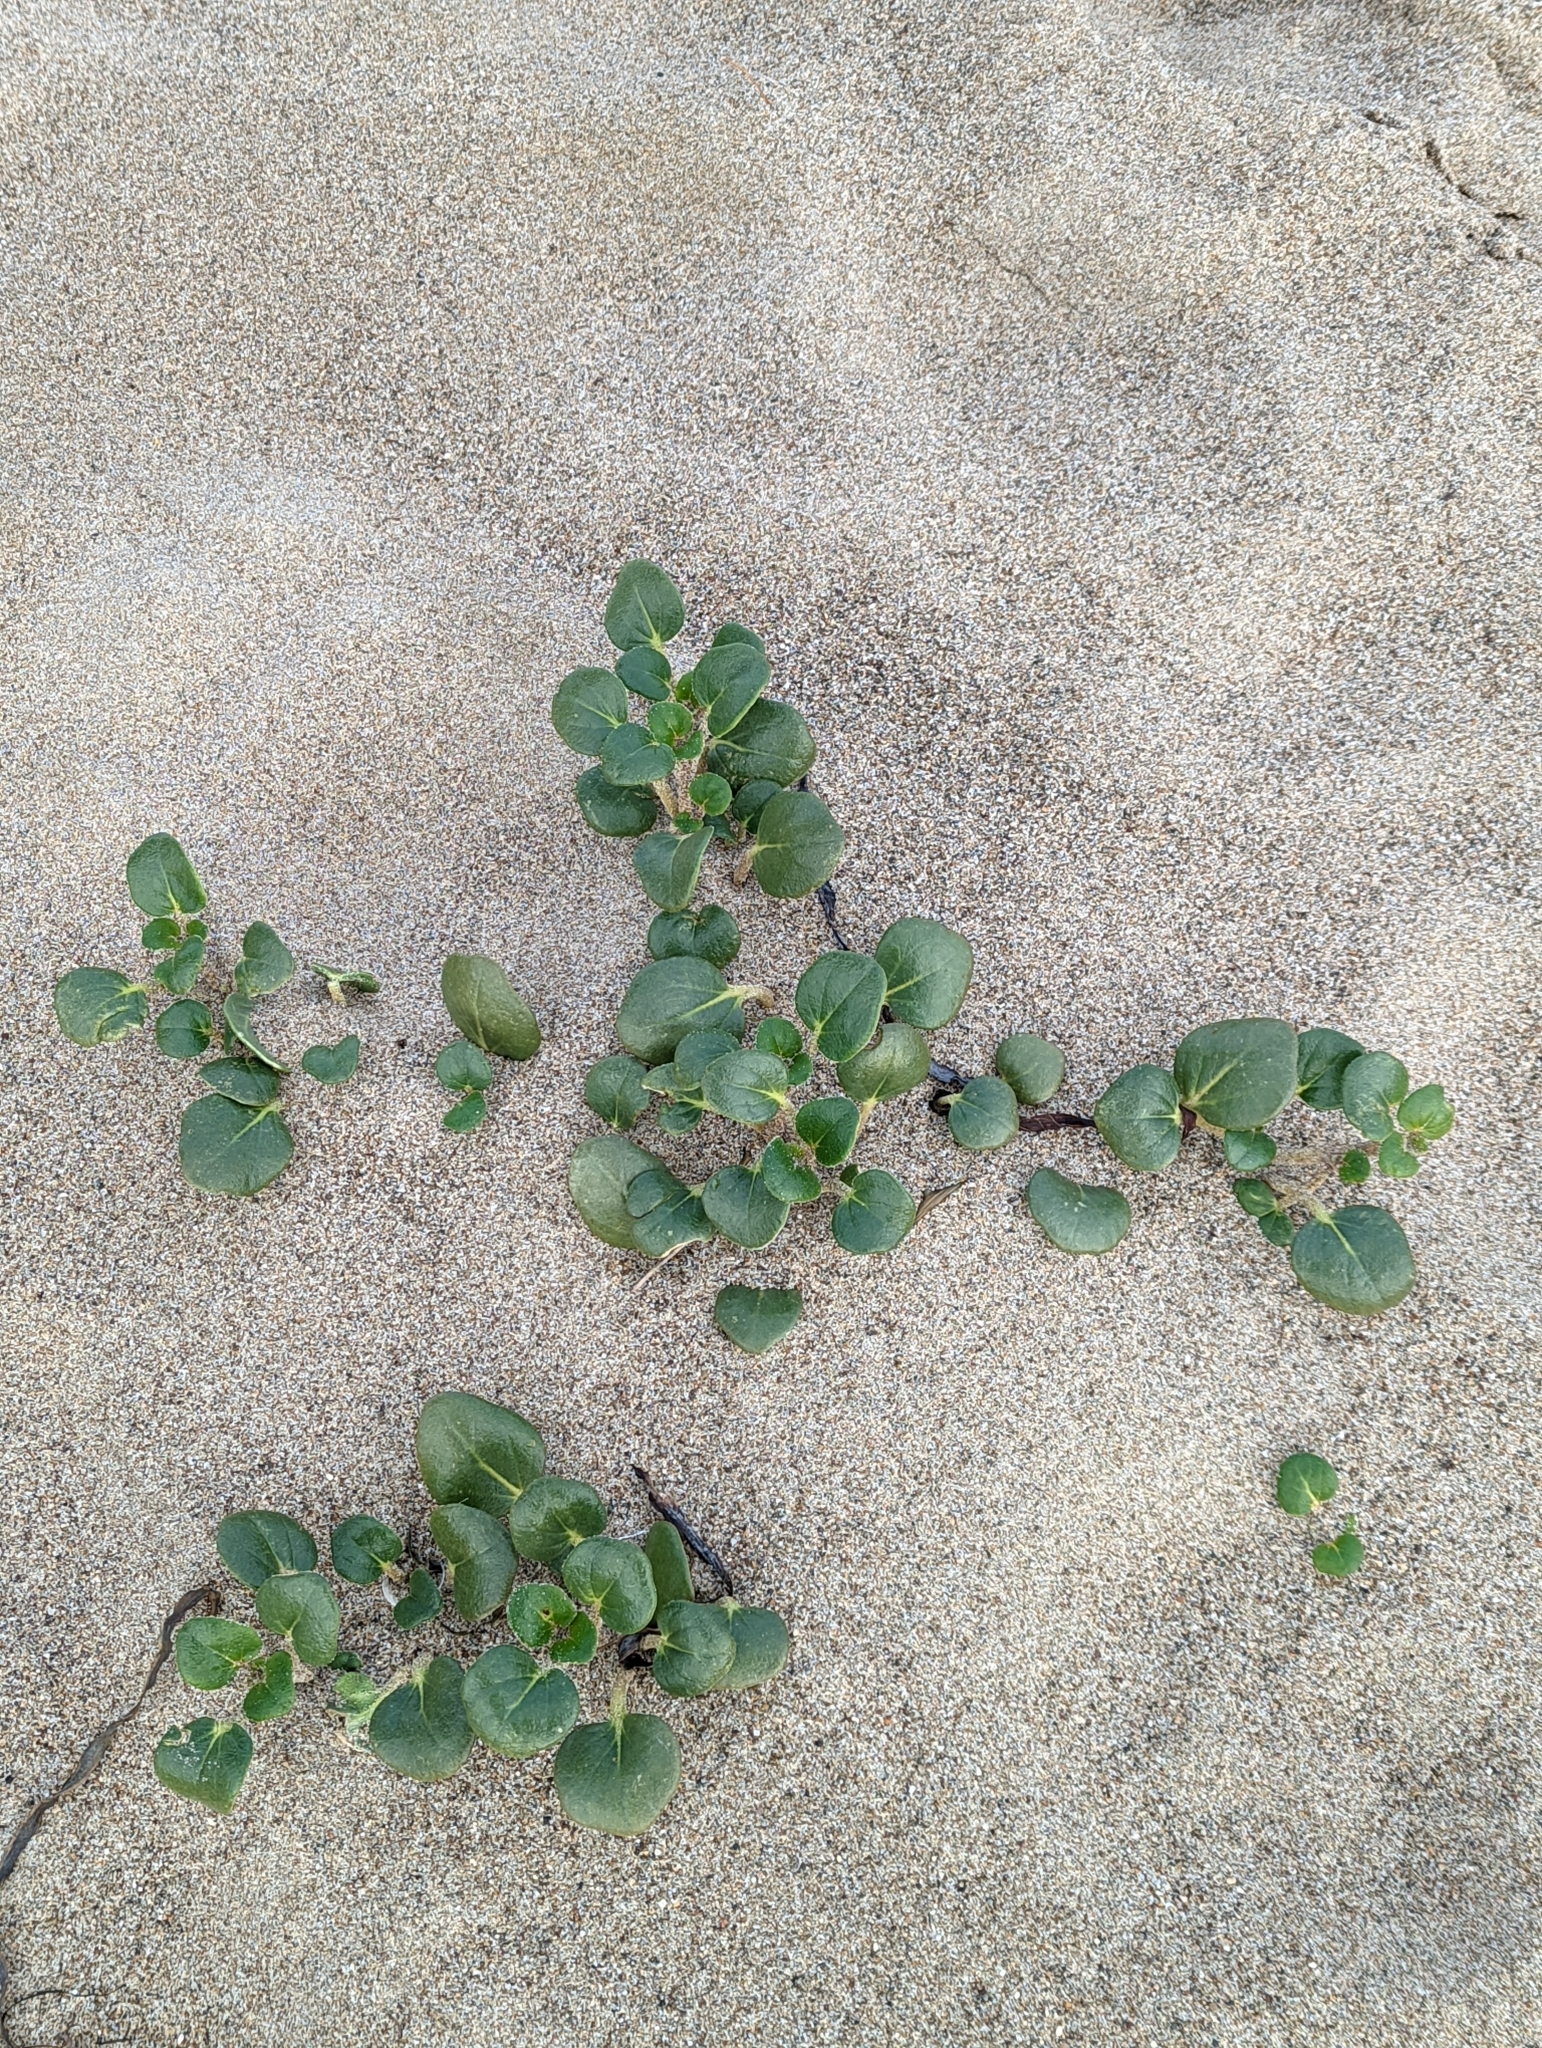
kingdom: Plantae
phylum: Tracheophyta
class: Magnoliopsida
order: Caryophyllales
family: Nyctaginaceae
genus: Abronia
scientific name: Abronia latifolia
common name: Yellow sand-verbena
